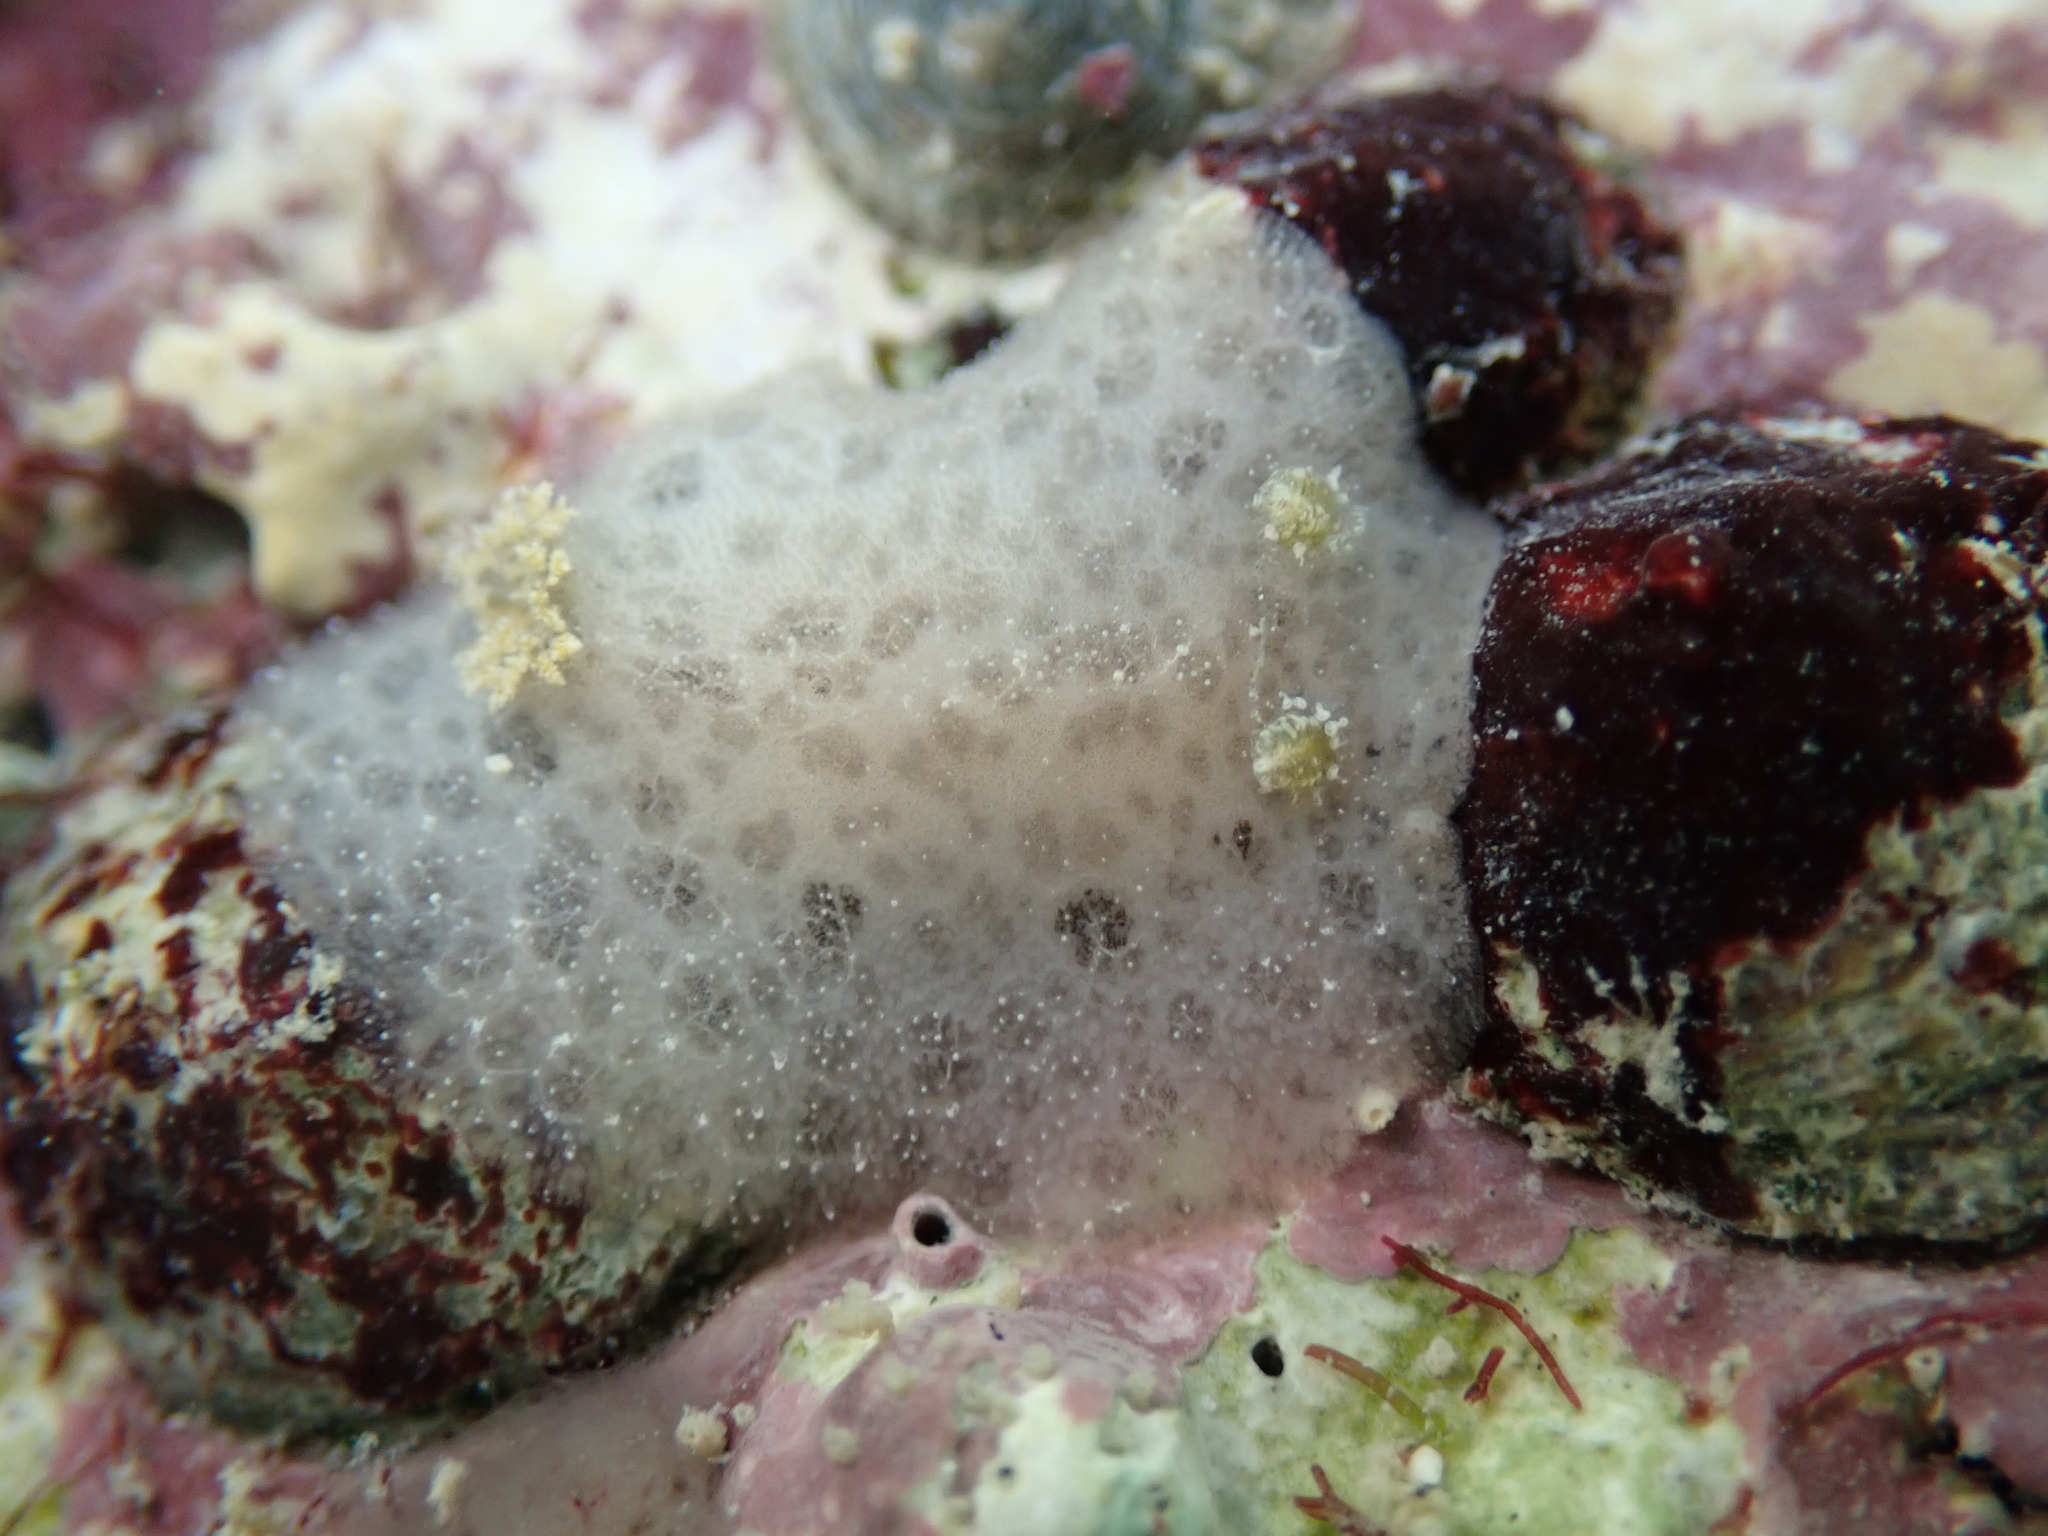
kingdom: Animalia
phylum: Mollusca
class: Gastropoda
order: Nudibranchia
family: Discodorididae
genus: Tayuva
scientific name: Tayuva lilacina
